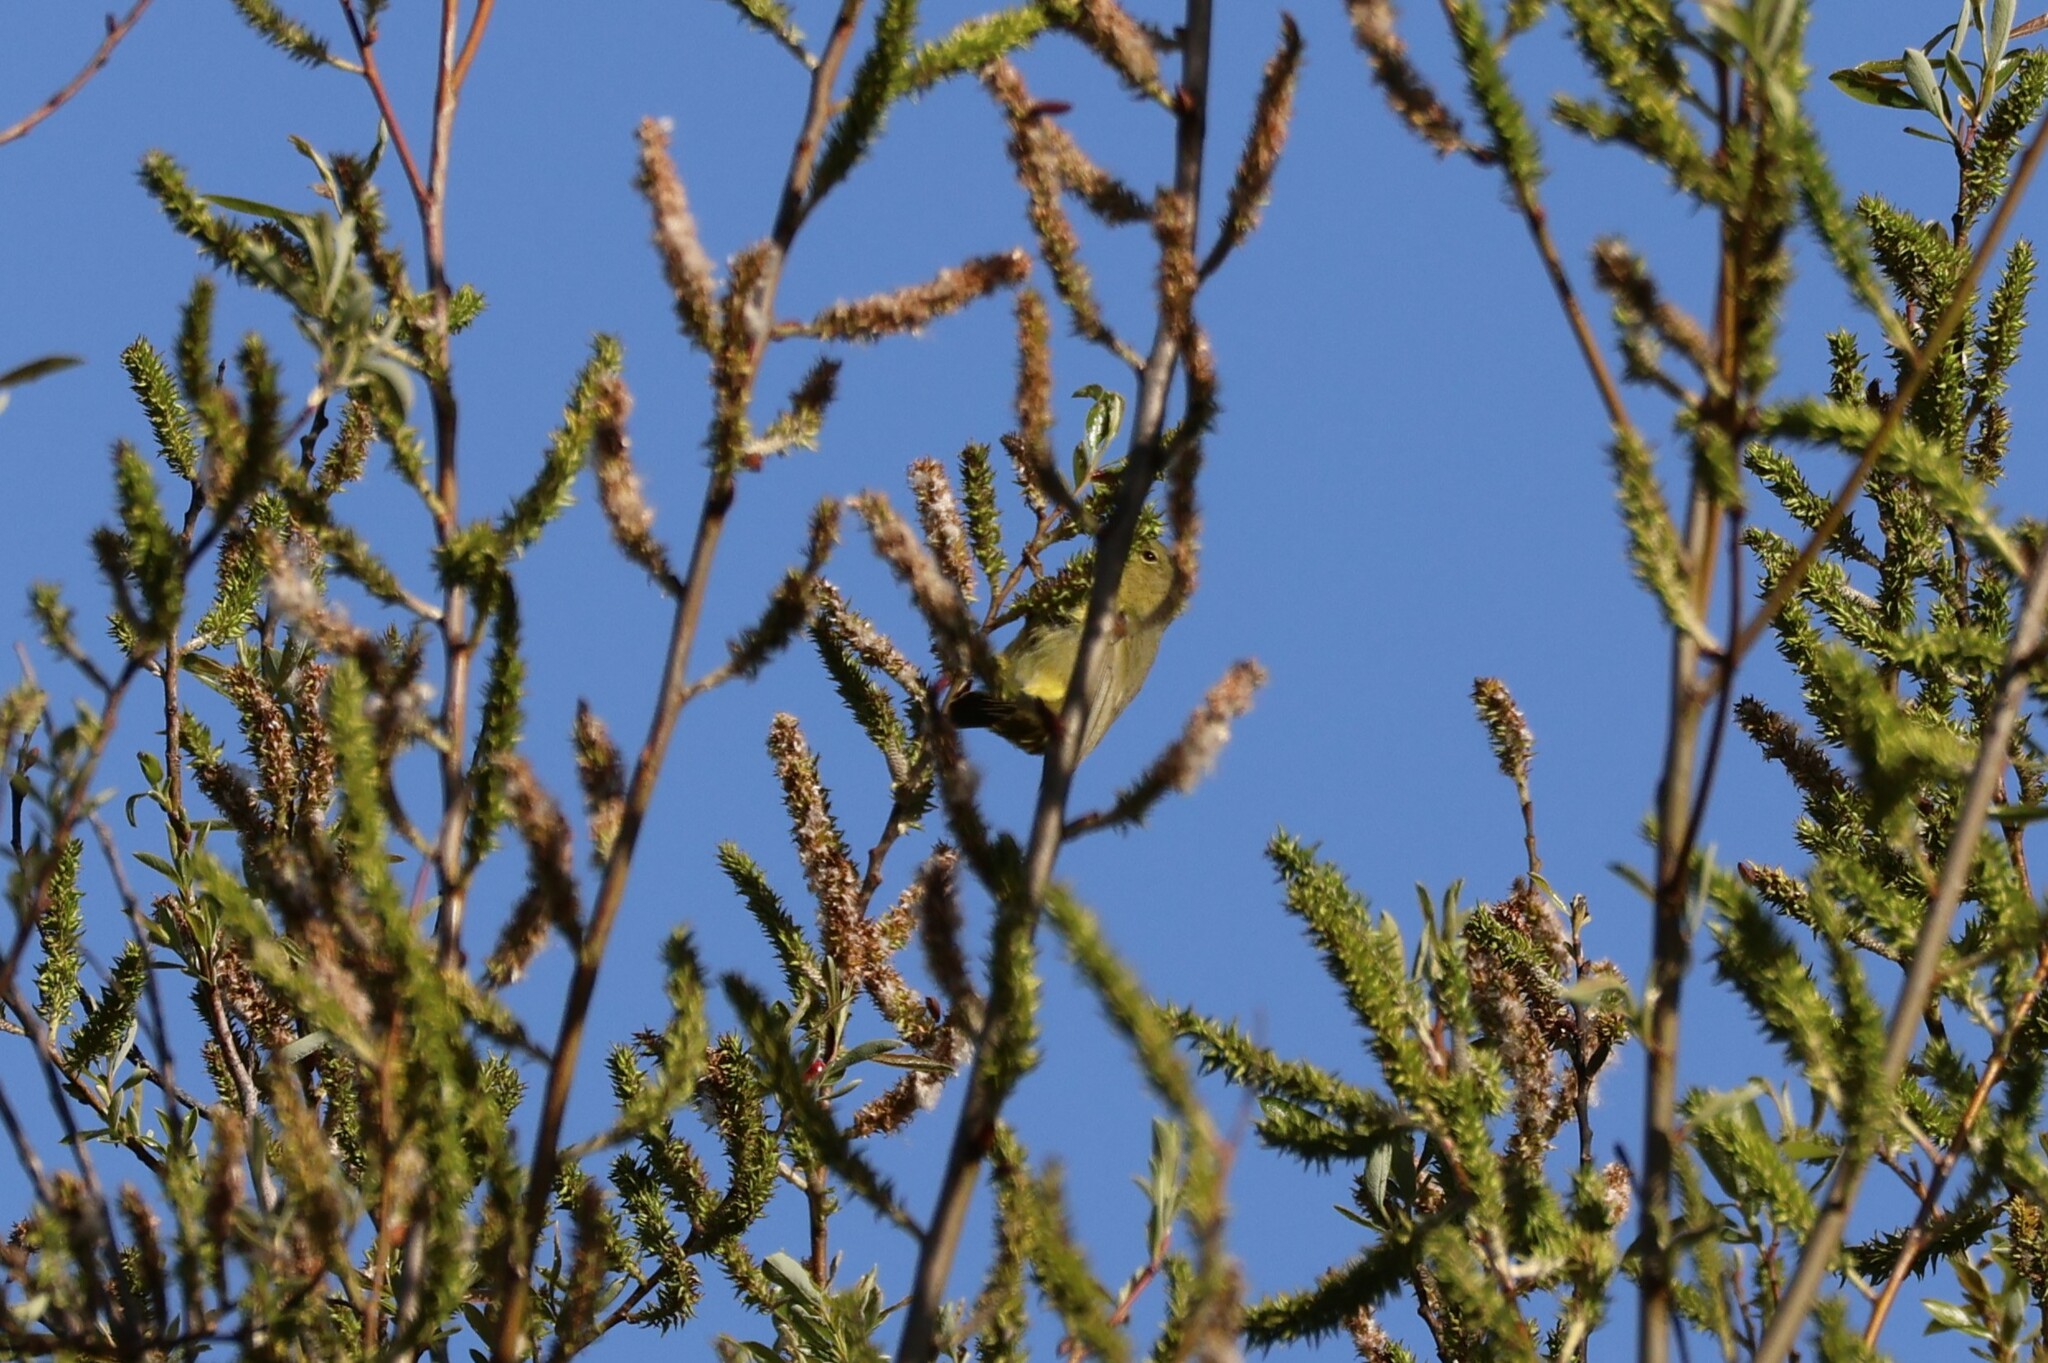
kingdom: Animalia
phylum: Chordata
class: Aves
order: Passeriformes
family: Parulidae
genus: Leiothlypis
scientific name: Leiothlypis celata
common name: Orange-crowned warbler
